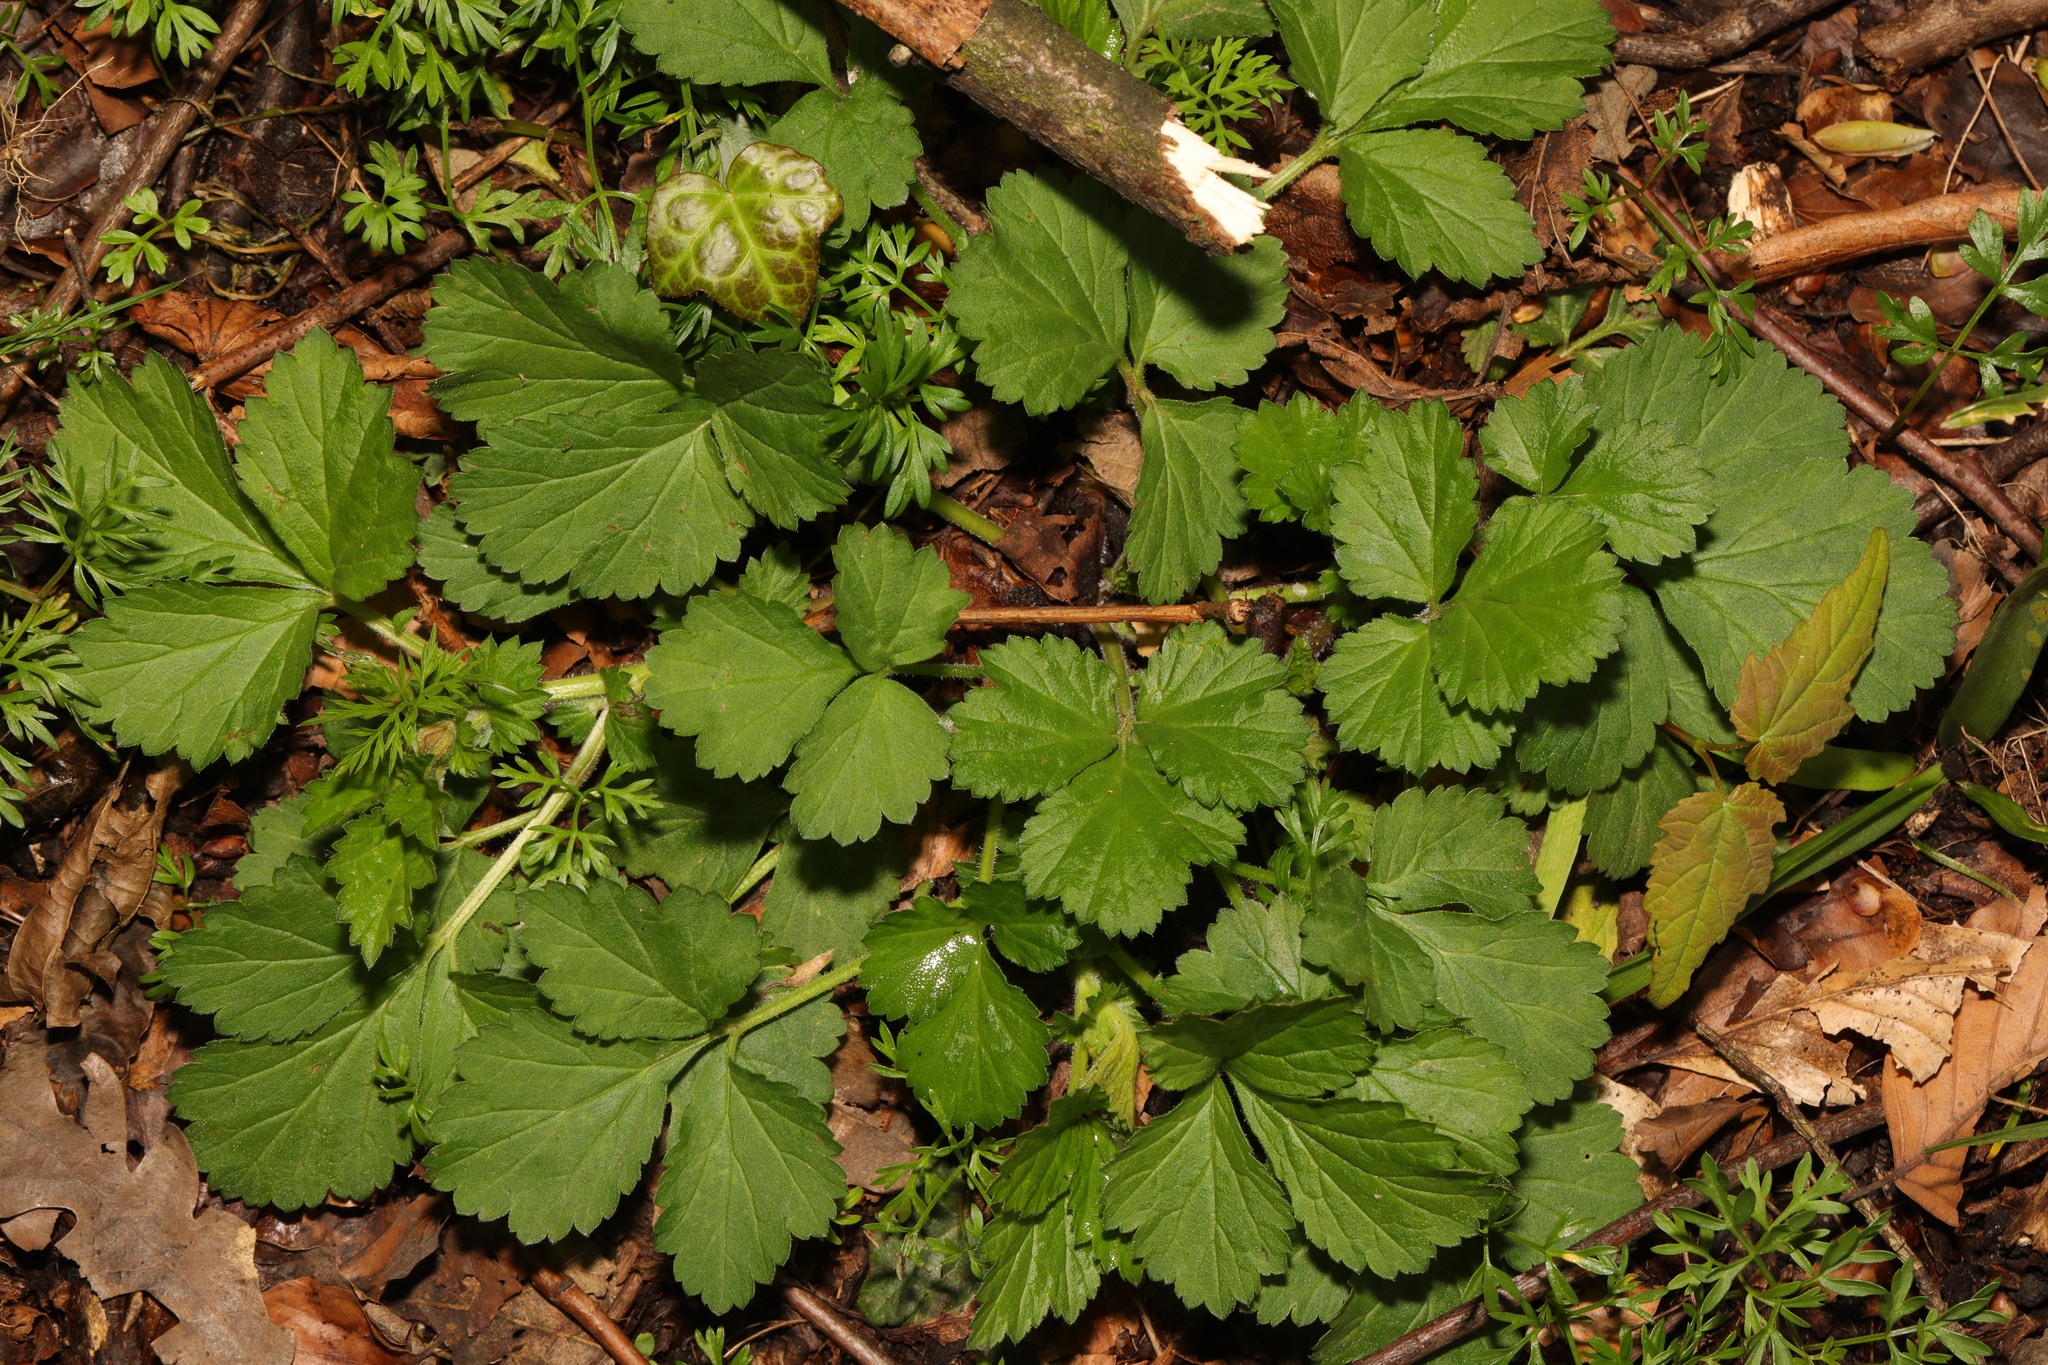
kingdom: Plantae
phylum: Tracheophyta
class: Magnoliopsida
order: Rosales
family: Rosaceae
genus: Geum
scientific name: Geum urbanum
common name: Wood avens
